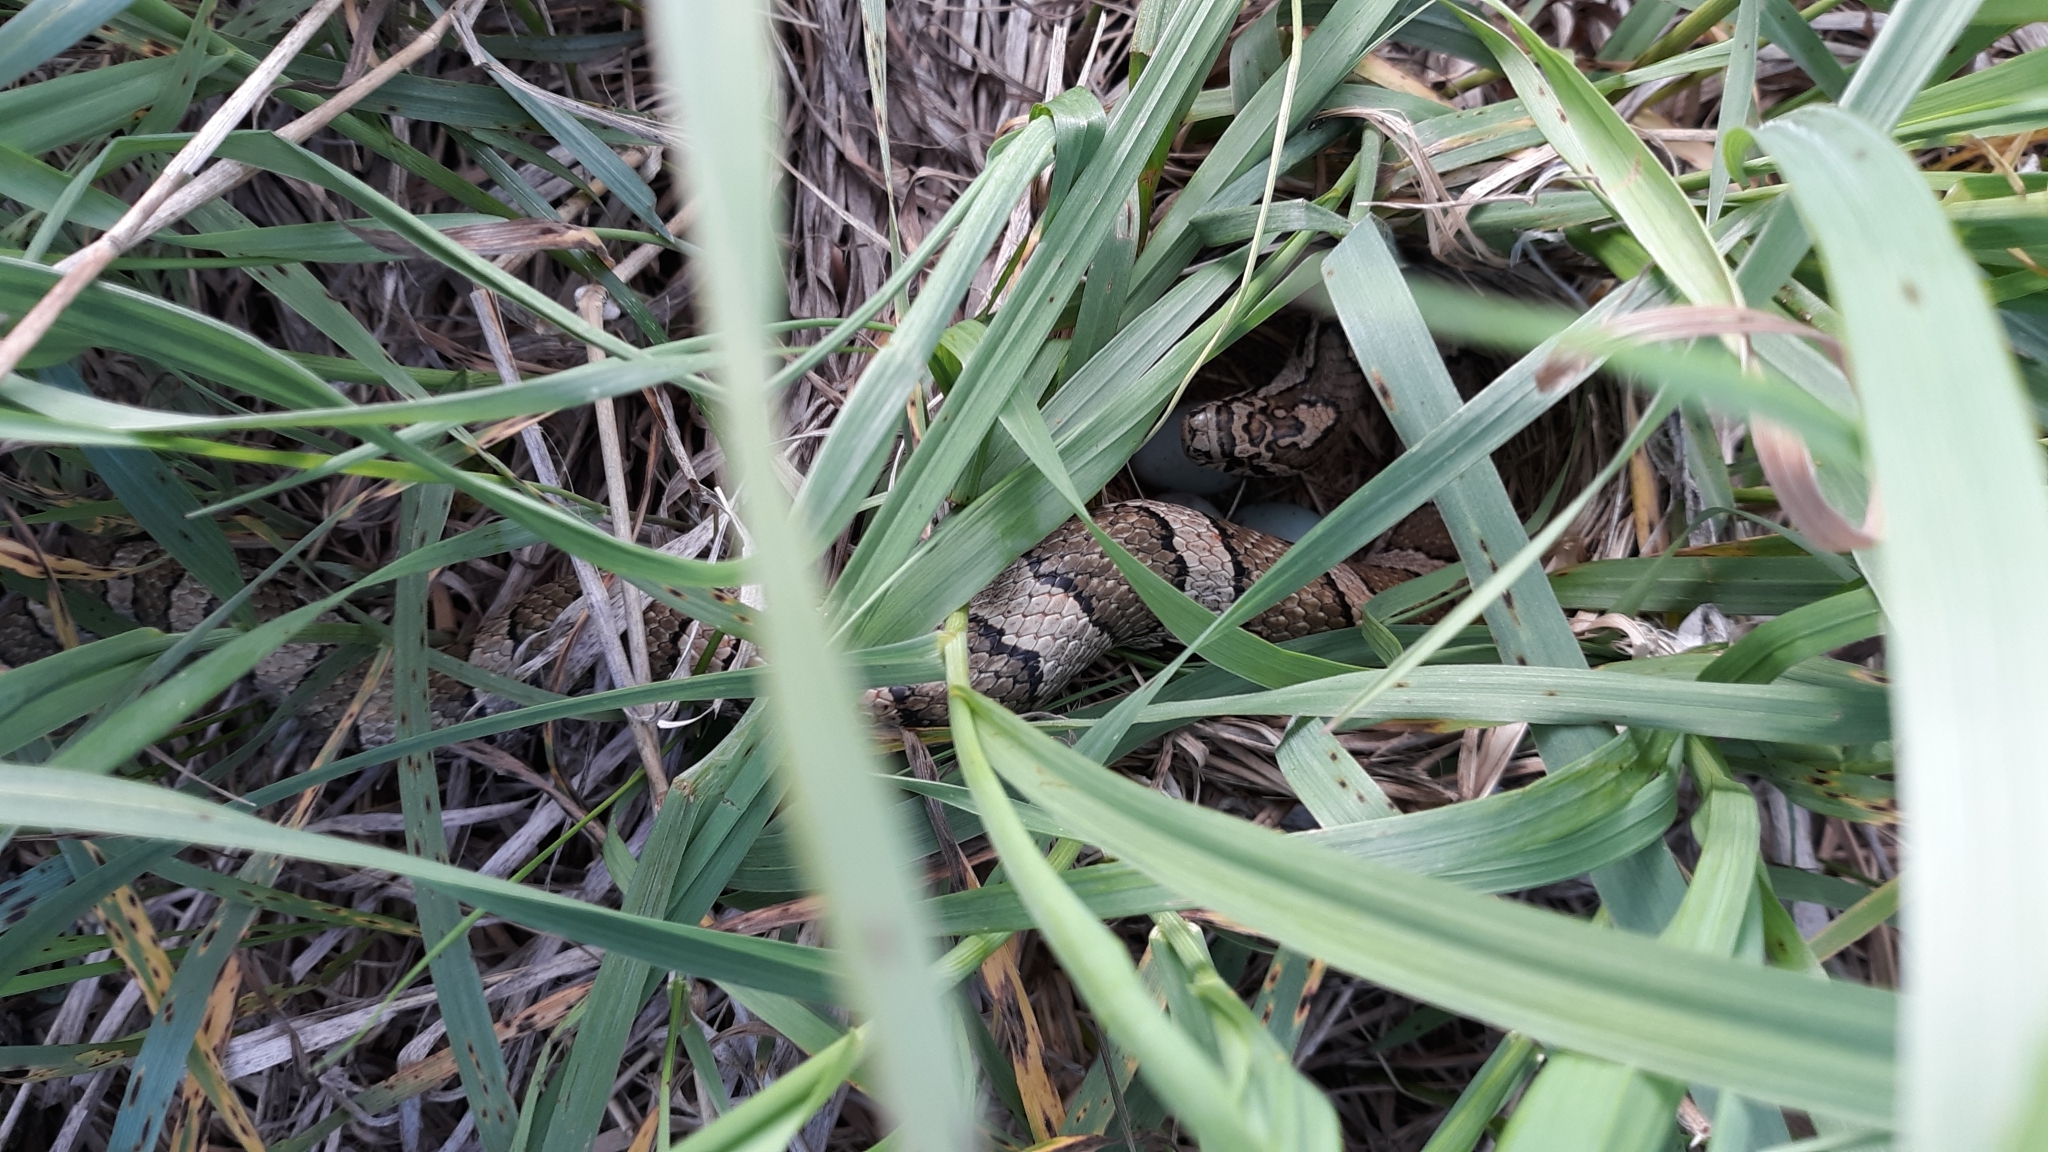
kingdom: Animalia
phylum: Chordata
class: Squamata
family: Colubridae
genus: Lampropeltis
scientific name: Lampropeltis triangulum
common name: Eastern milksnake
